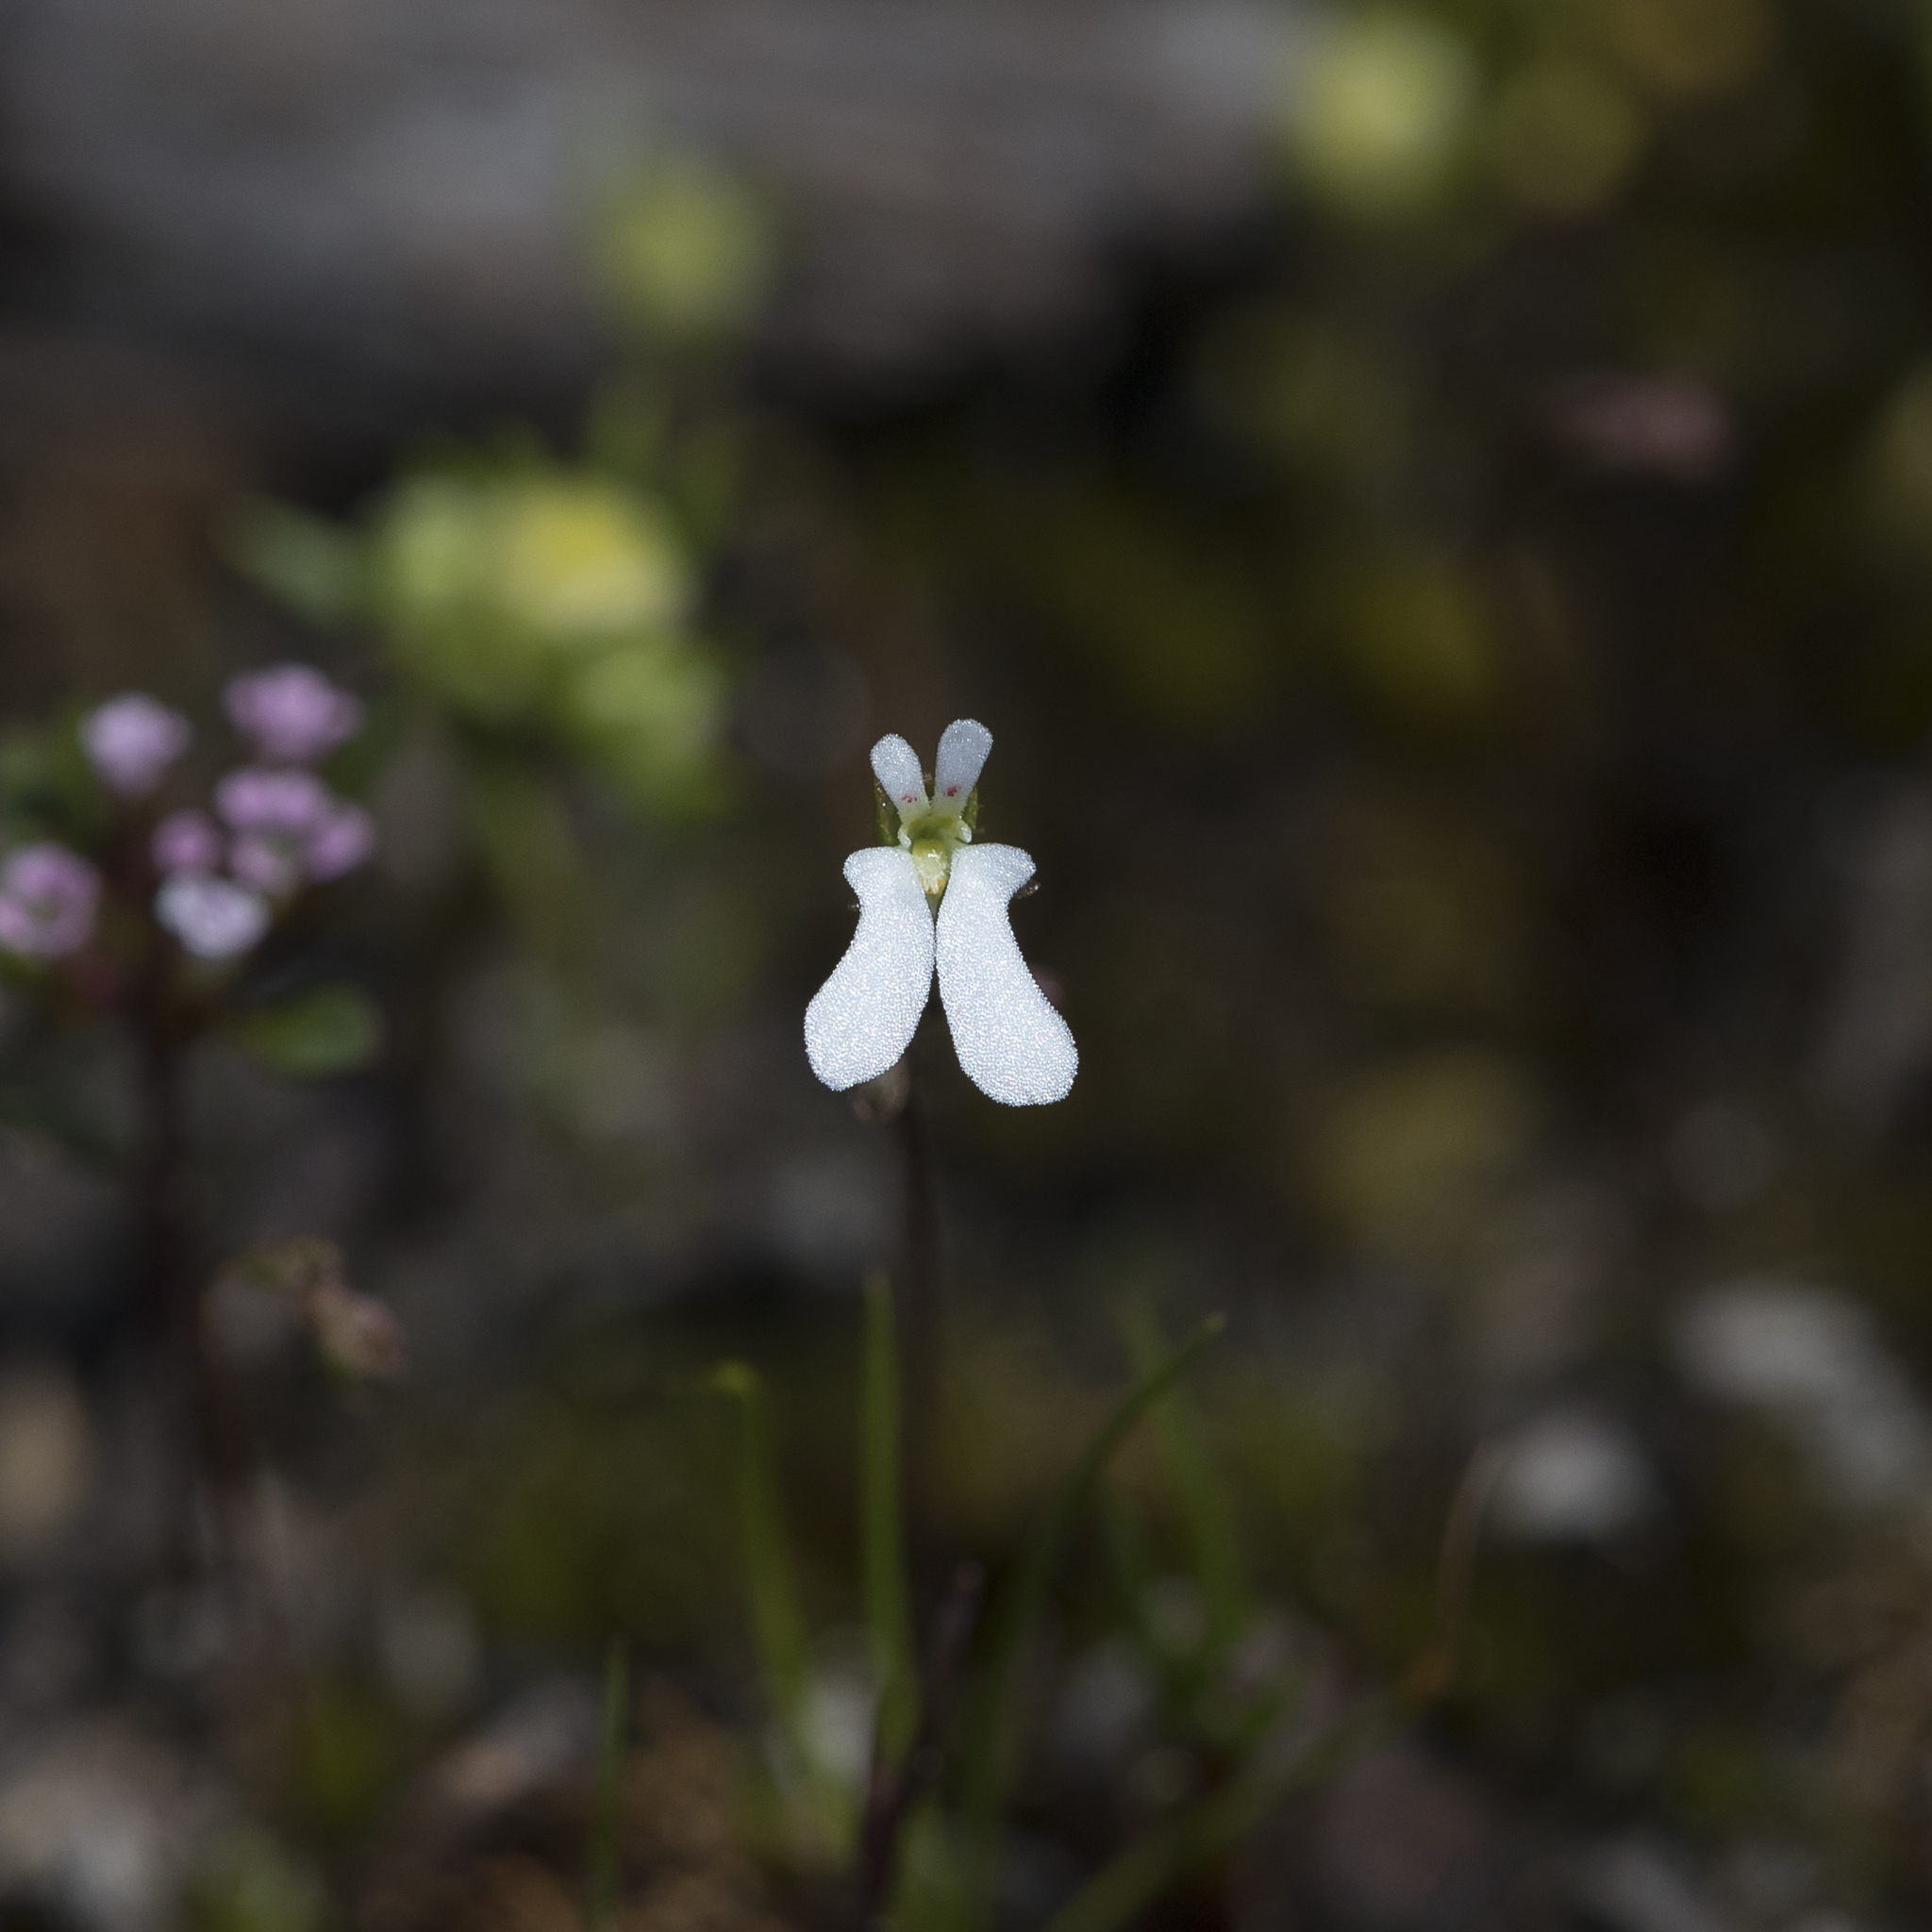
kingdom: Plantae
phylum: Tracheophyta
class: Magnoliopsida
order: Asterales
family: Stylidiaceae
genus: Stylidium
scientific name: Stylidium perpusillum
